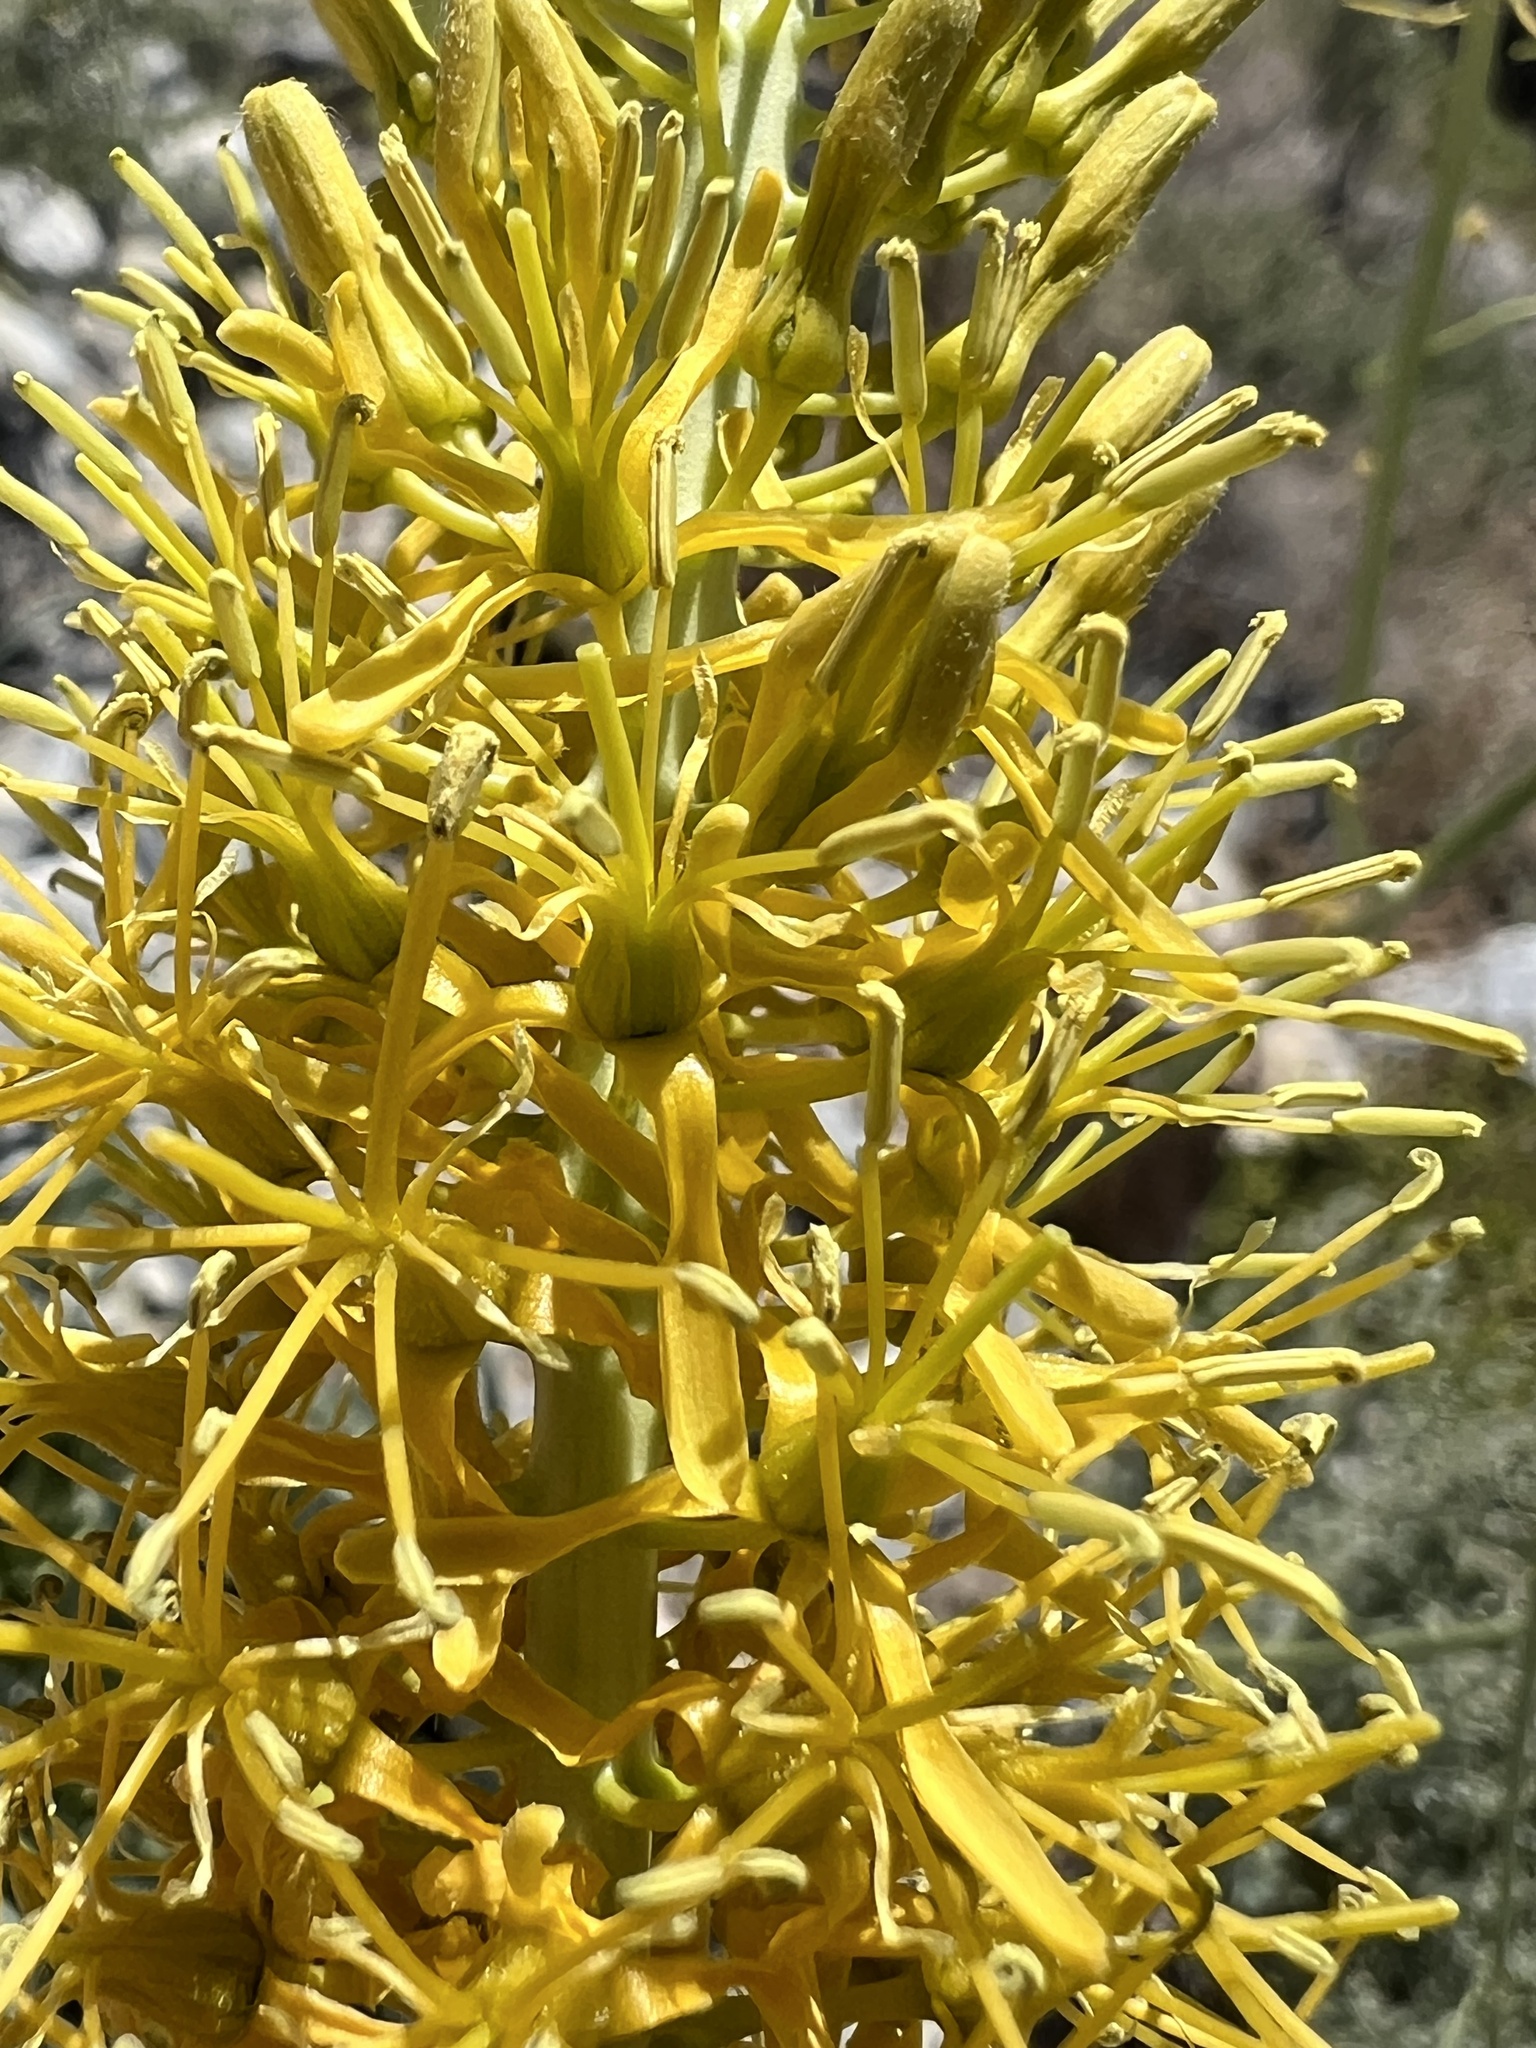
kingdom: Plantae
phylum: Tracheophyta
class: Magnoliopsida
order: Brassicales
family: Brassicaceae
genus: Stanleya
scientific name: Stanleya elata
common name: Panamint prince's plume
